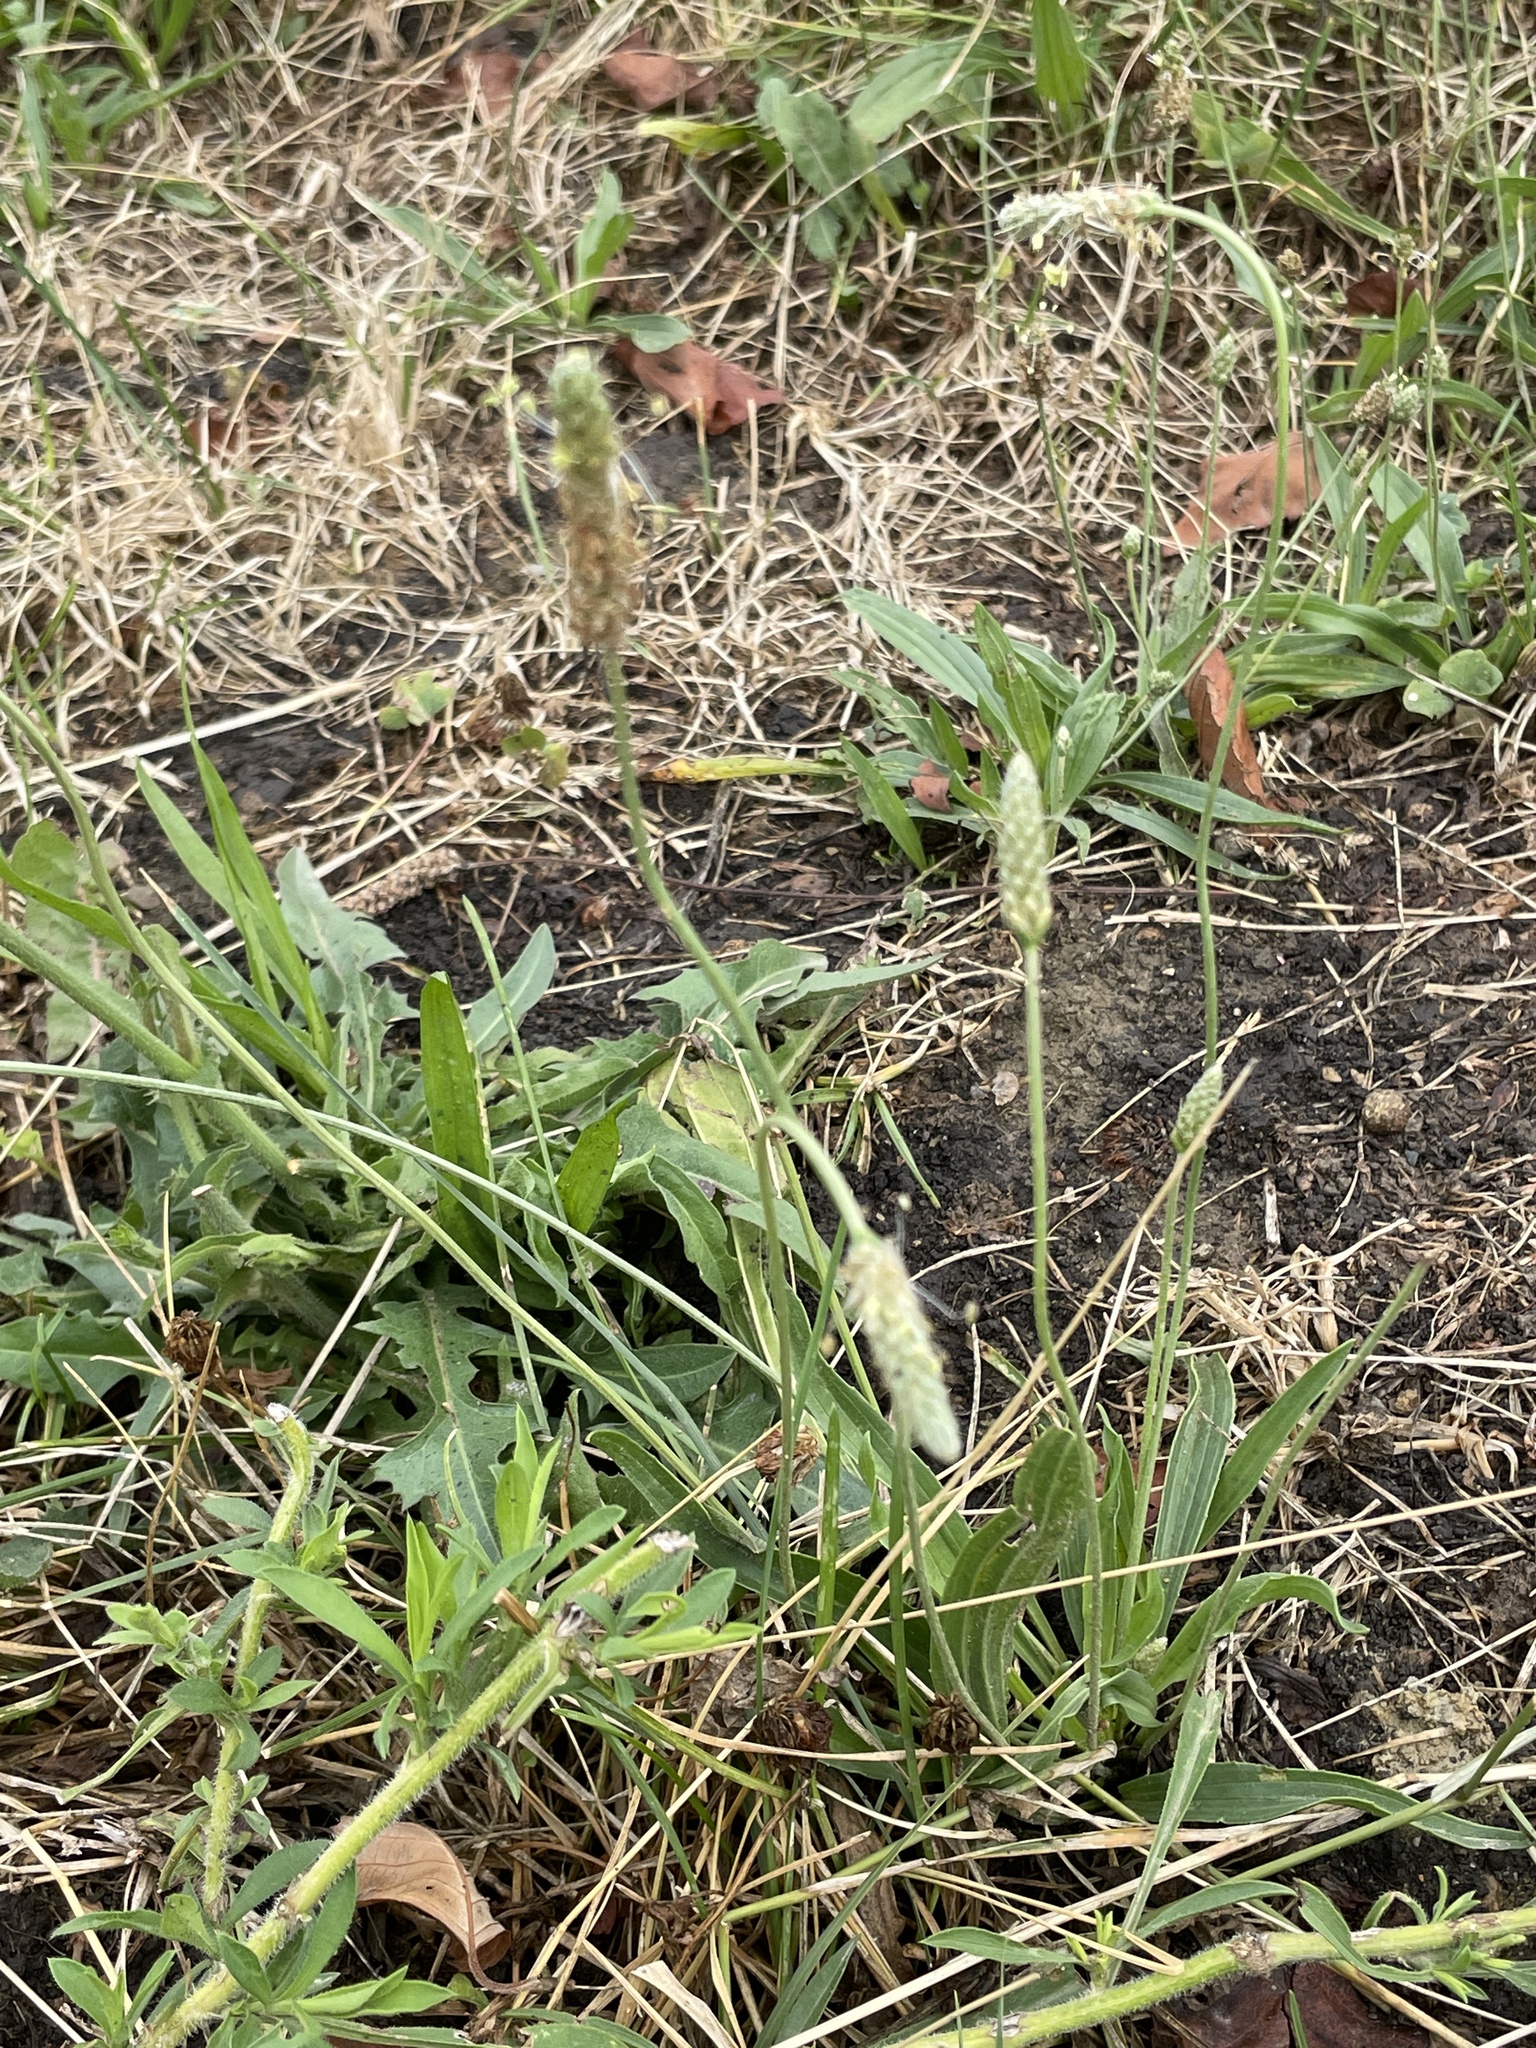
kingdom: Plantae
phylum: Tracheophyta
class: Magnoliopsida
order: Lamiales
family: Plantaginaceae
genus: Plantago
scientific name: Plantago lanceolata
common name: Ribwort plantain
